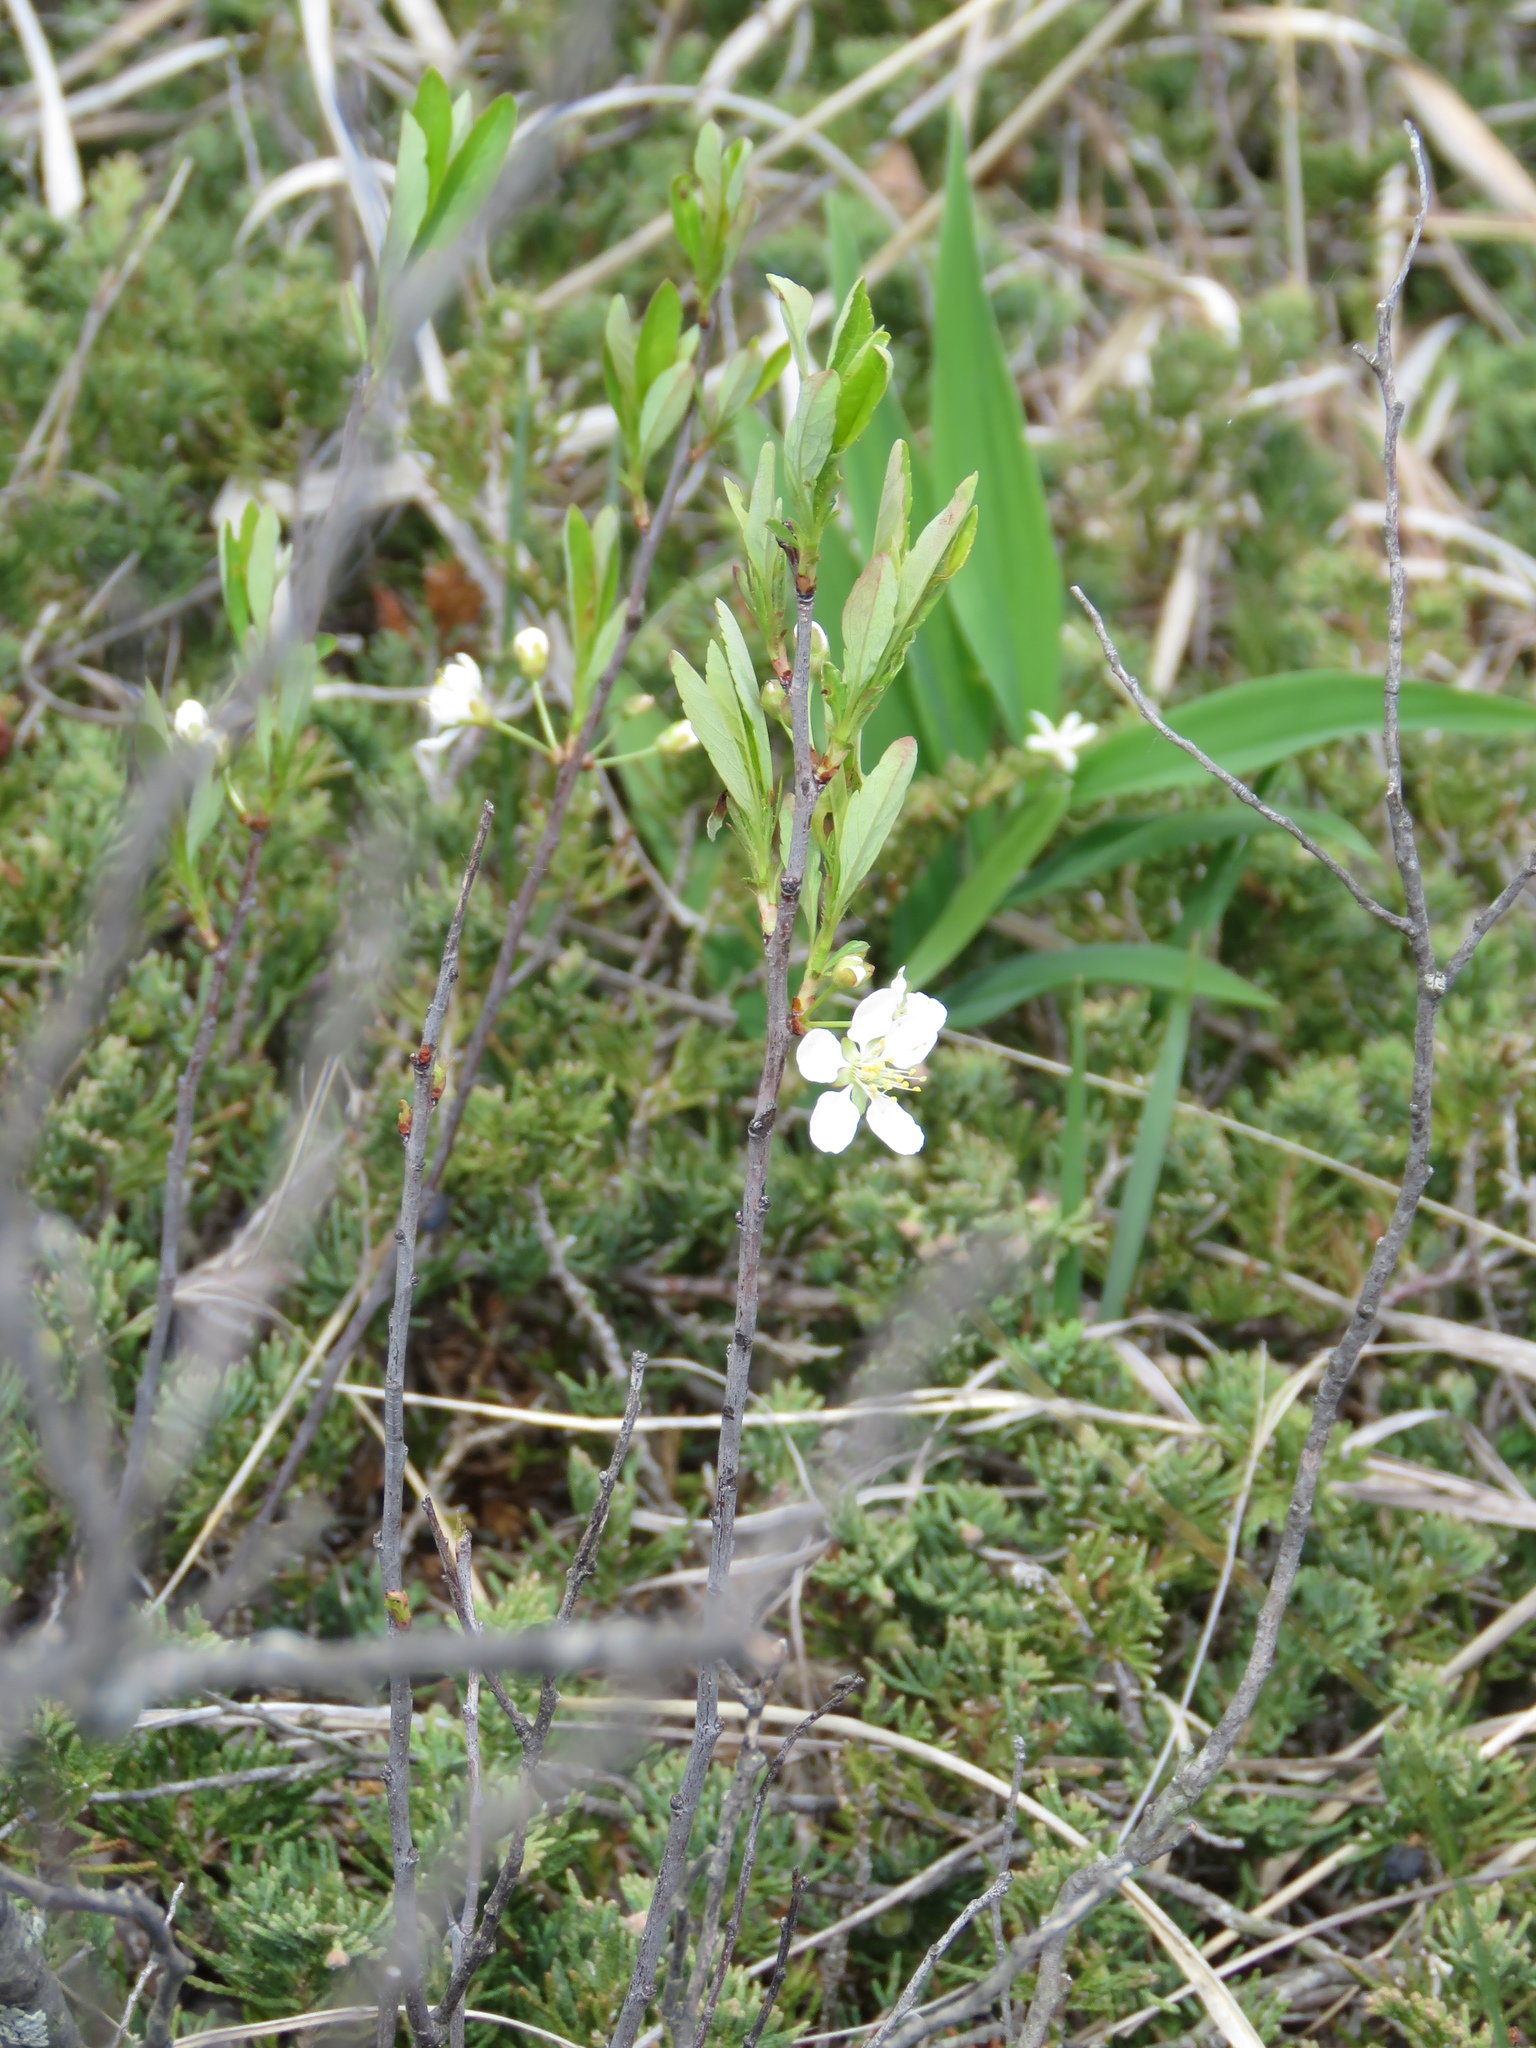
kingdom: Plantae
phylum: Tracheophyta
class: Magnoliopsida
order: Rosales
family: Rosaceae
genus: Prunus
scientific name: Prunus pumila
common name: Dwarf cherry
